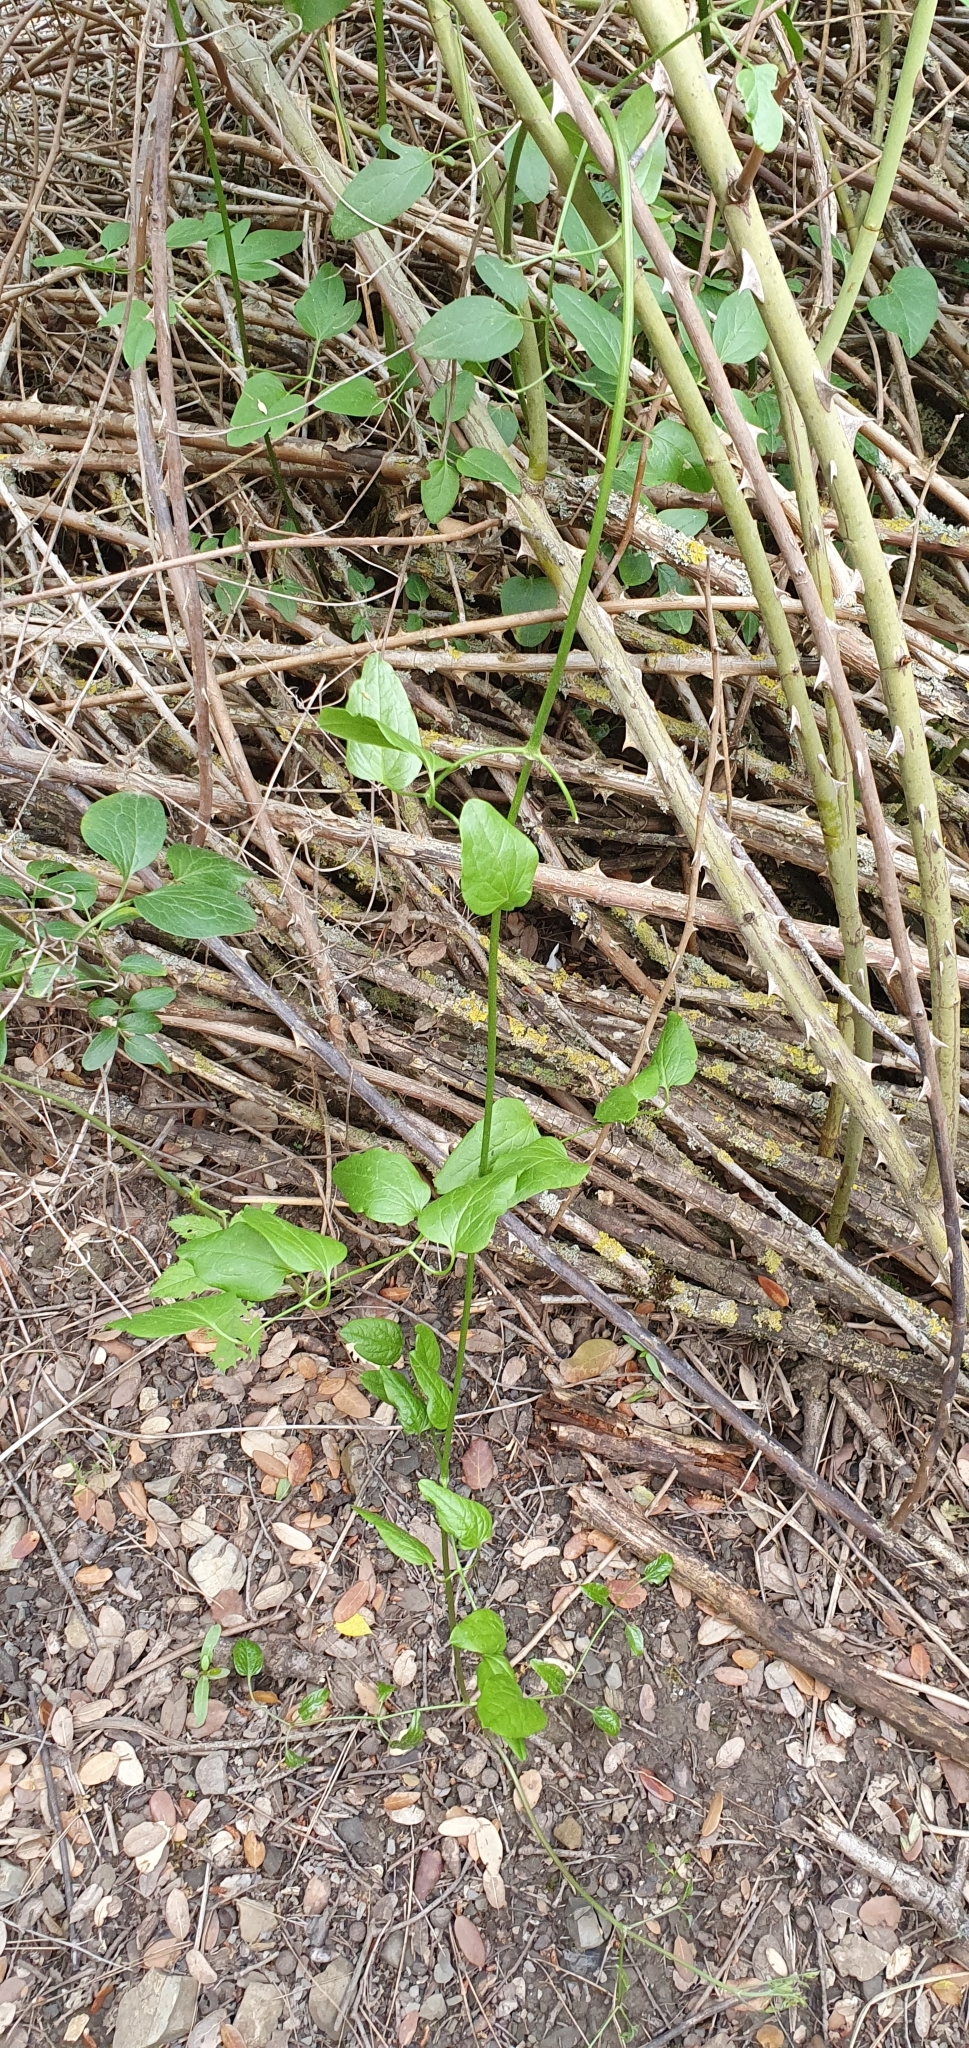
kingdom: Plantae
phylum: Tracheophyta
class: Magnoliopsida
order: Ranunculales
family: Ranunculaceae
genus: Clematis
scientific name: Clematis flammula
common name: Virgin's-bower
